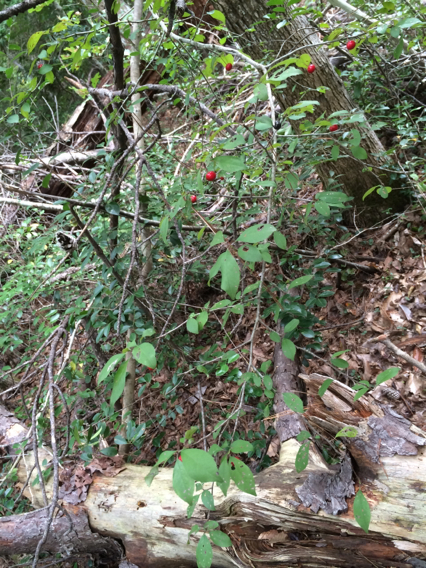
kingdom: Plantae
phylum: Tracheophyta
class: Magnoliopsida
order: Aquifoliales
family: Aquifoliaceae
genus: Ilex
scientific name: Ilex longipes
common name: Georgia holly
